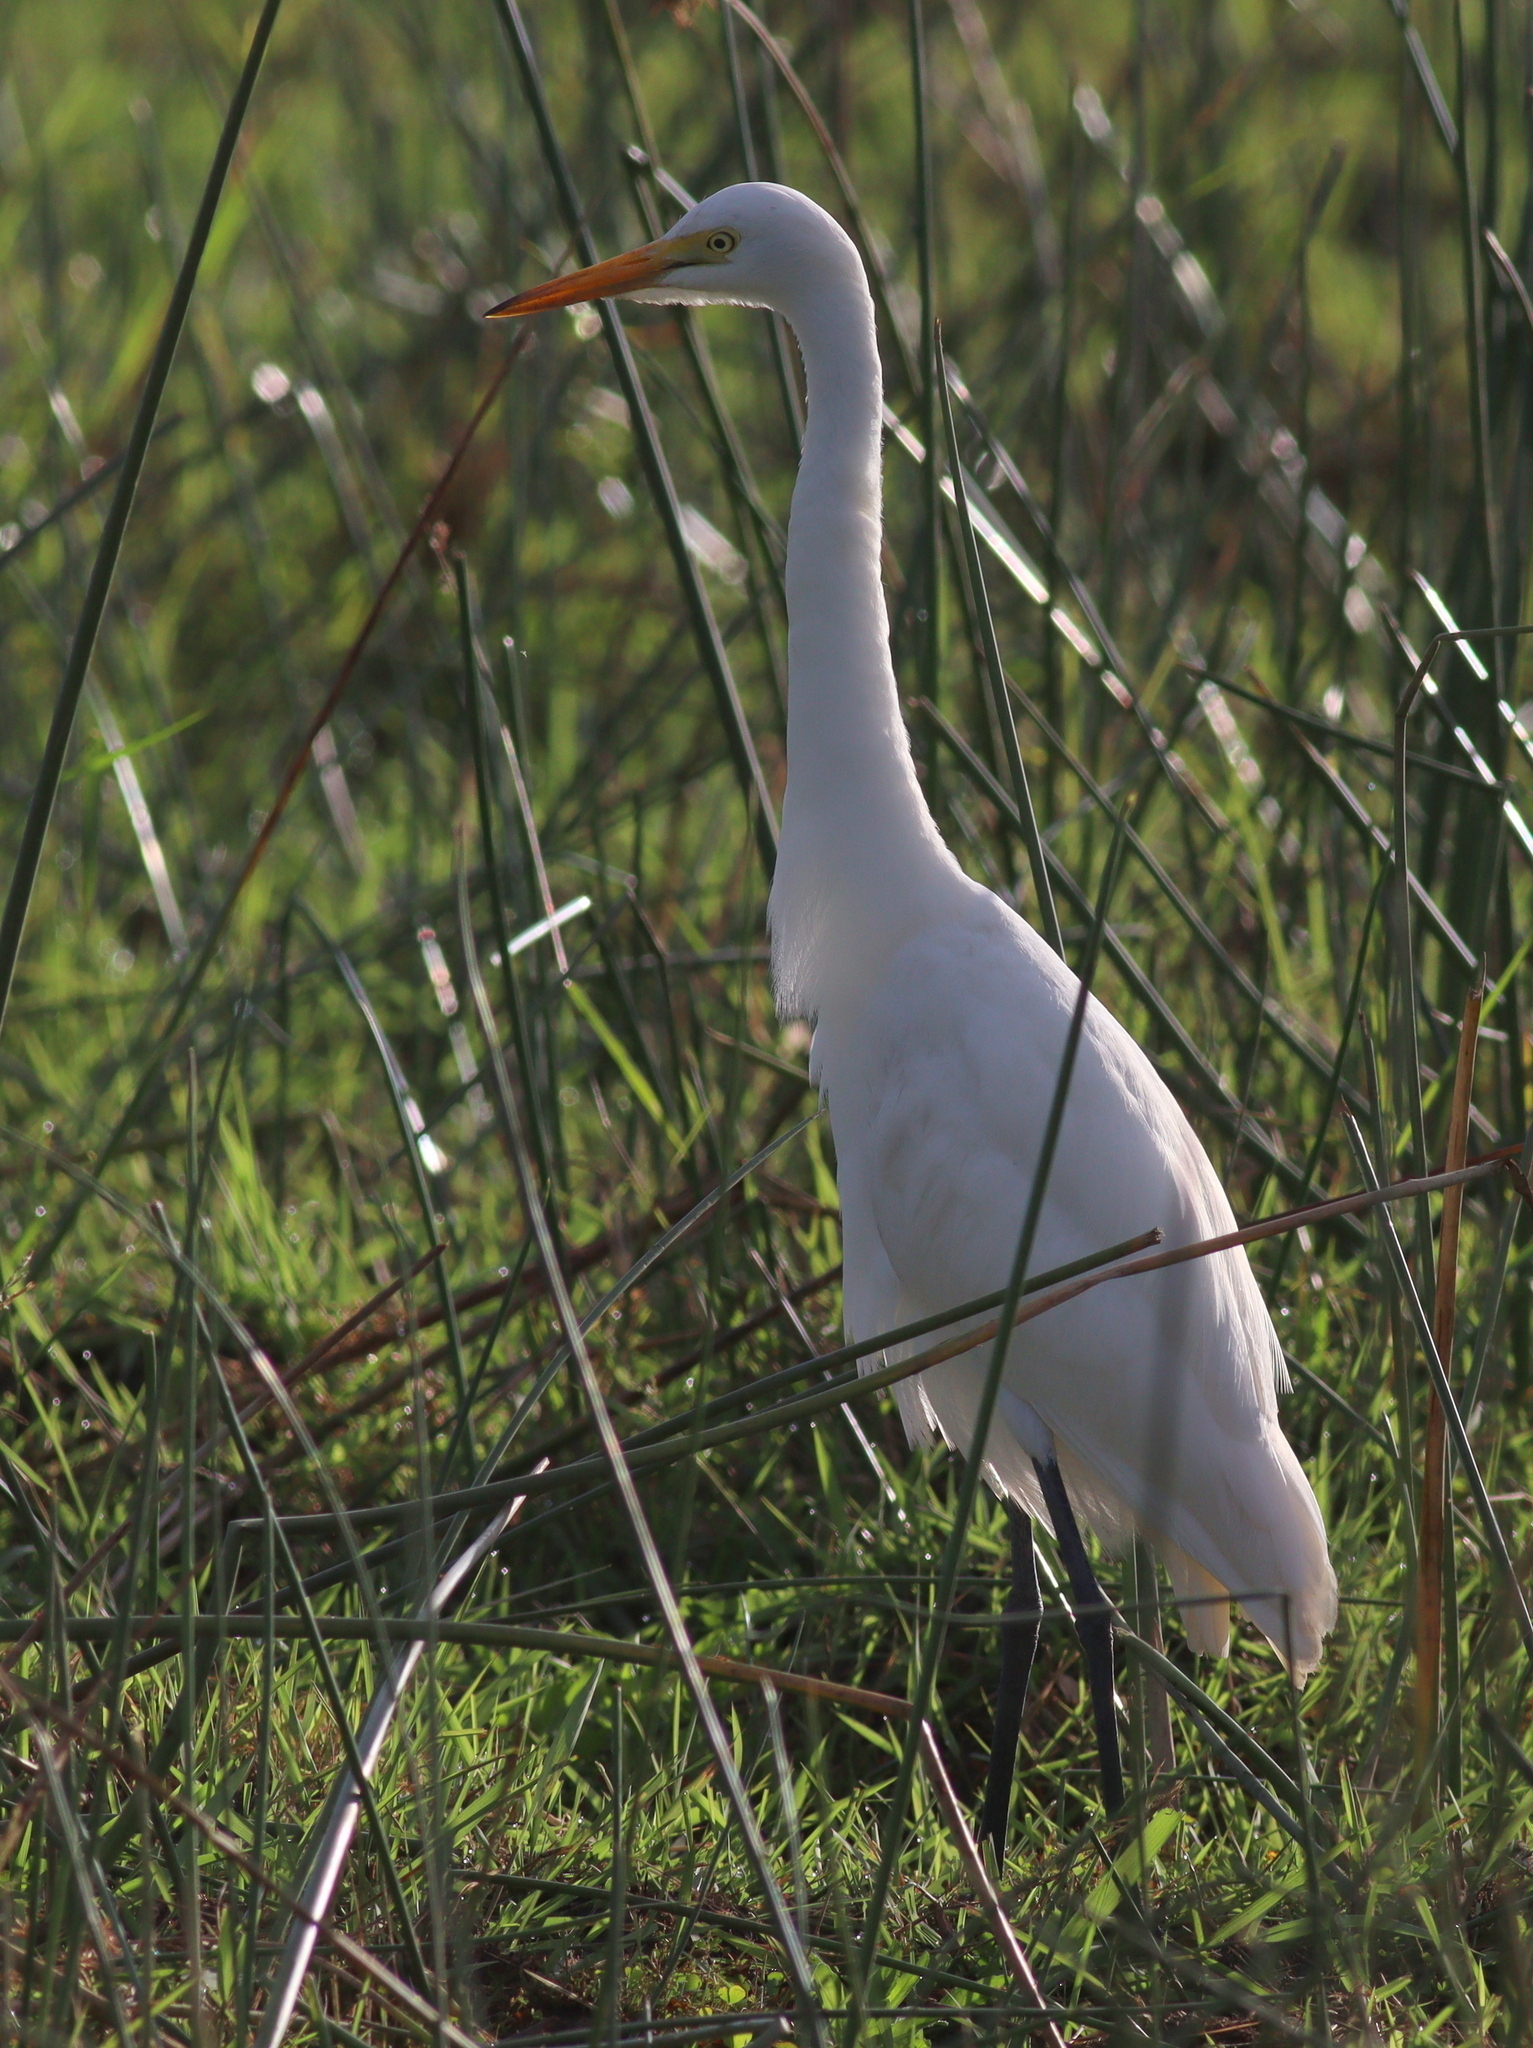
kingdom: Animalia
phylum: Chordata
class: Aves
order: Pelecaniformes
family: Ardeidae
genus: Egretta
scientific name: Egretta intermedia
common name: Intermediate egret
